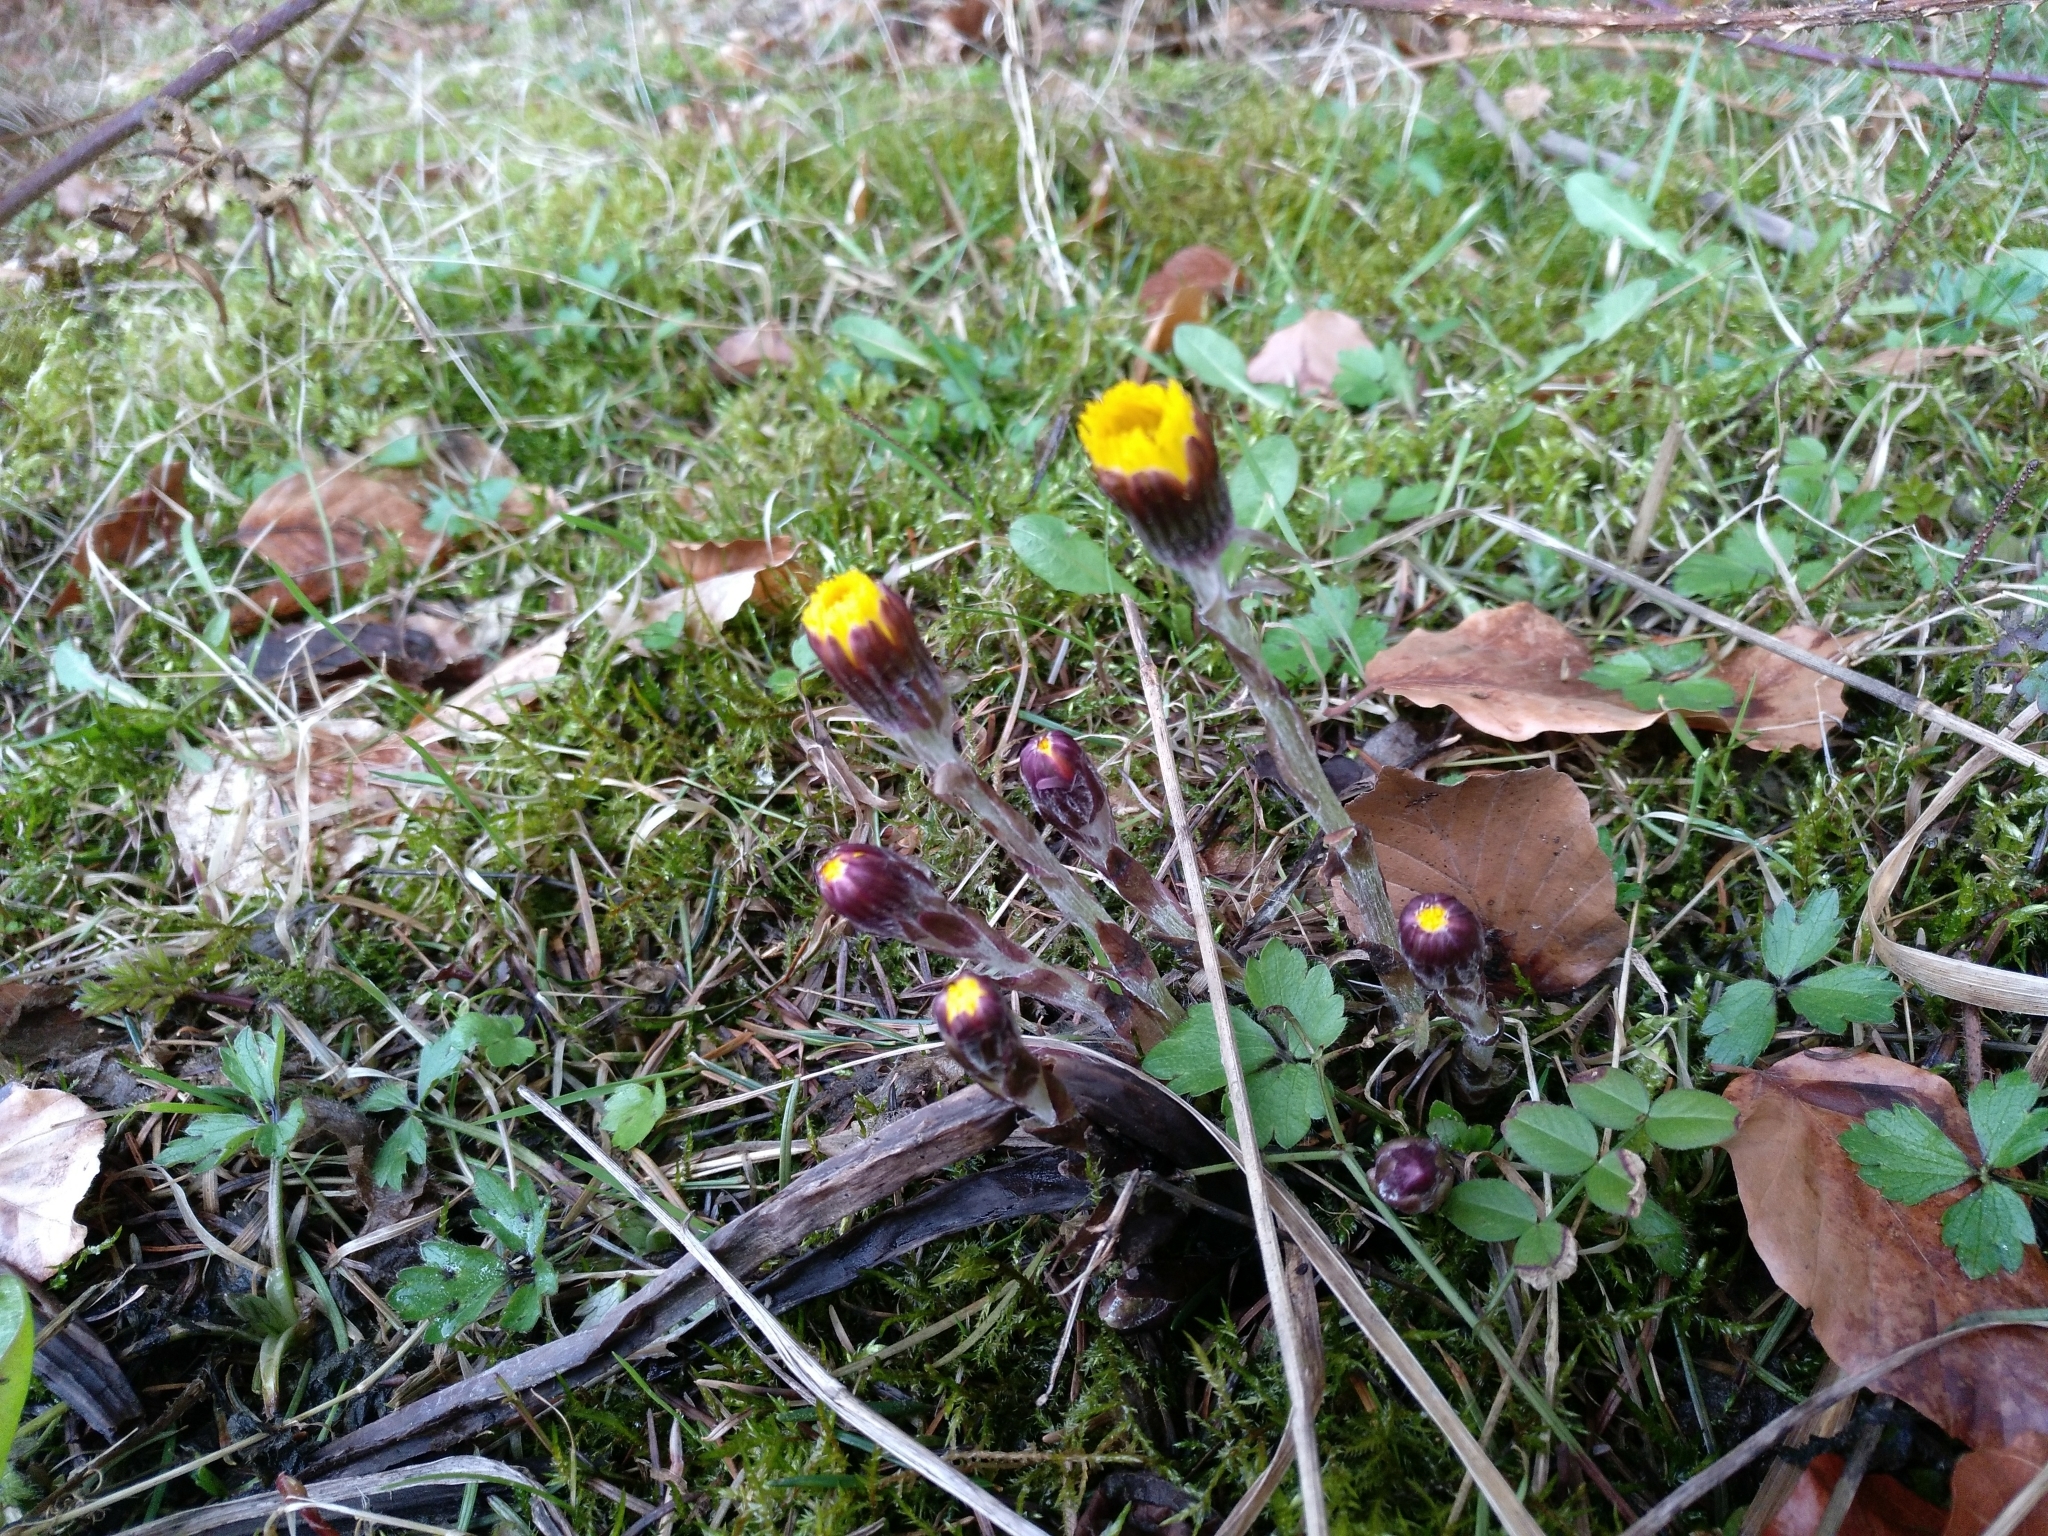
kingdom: Plantae
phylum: Tracheophyta
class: Magnoliopsida
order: Asterales
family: Asteraceae
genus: Tussilago
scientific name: Tussilago farfara
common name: Coltsfoot
